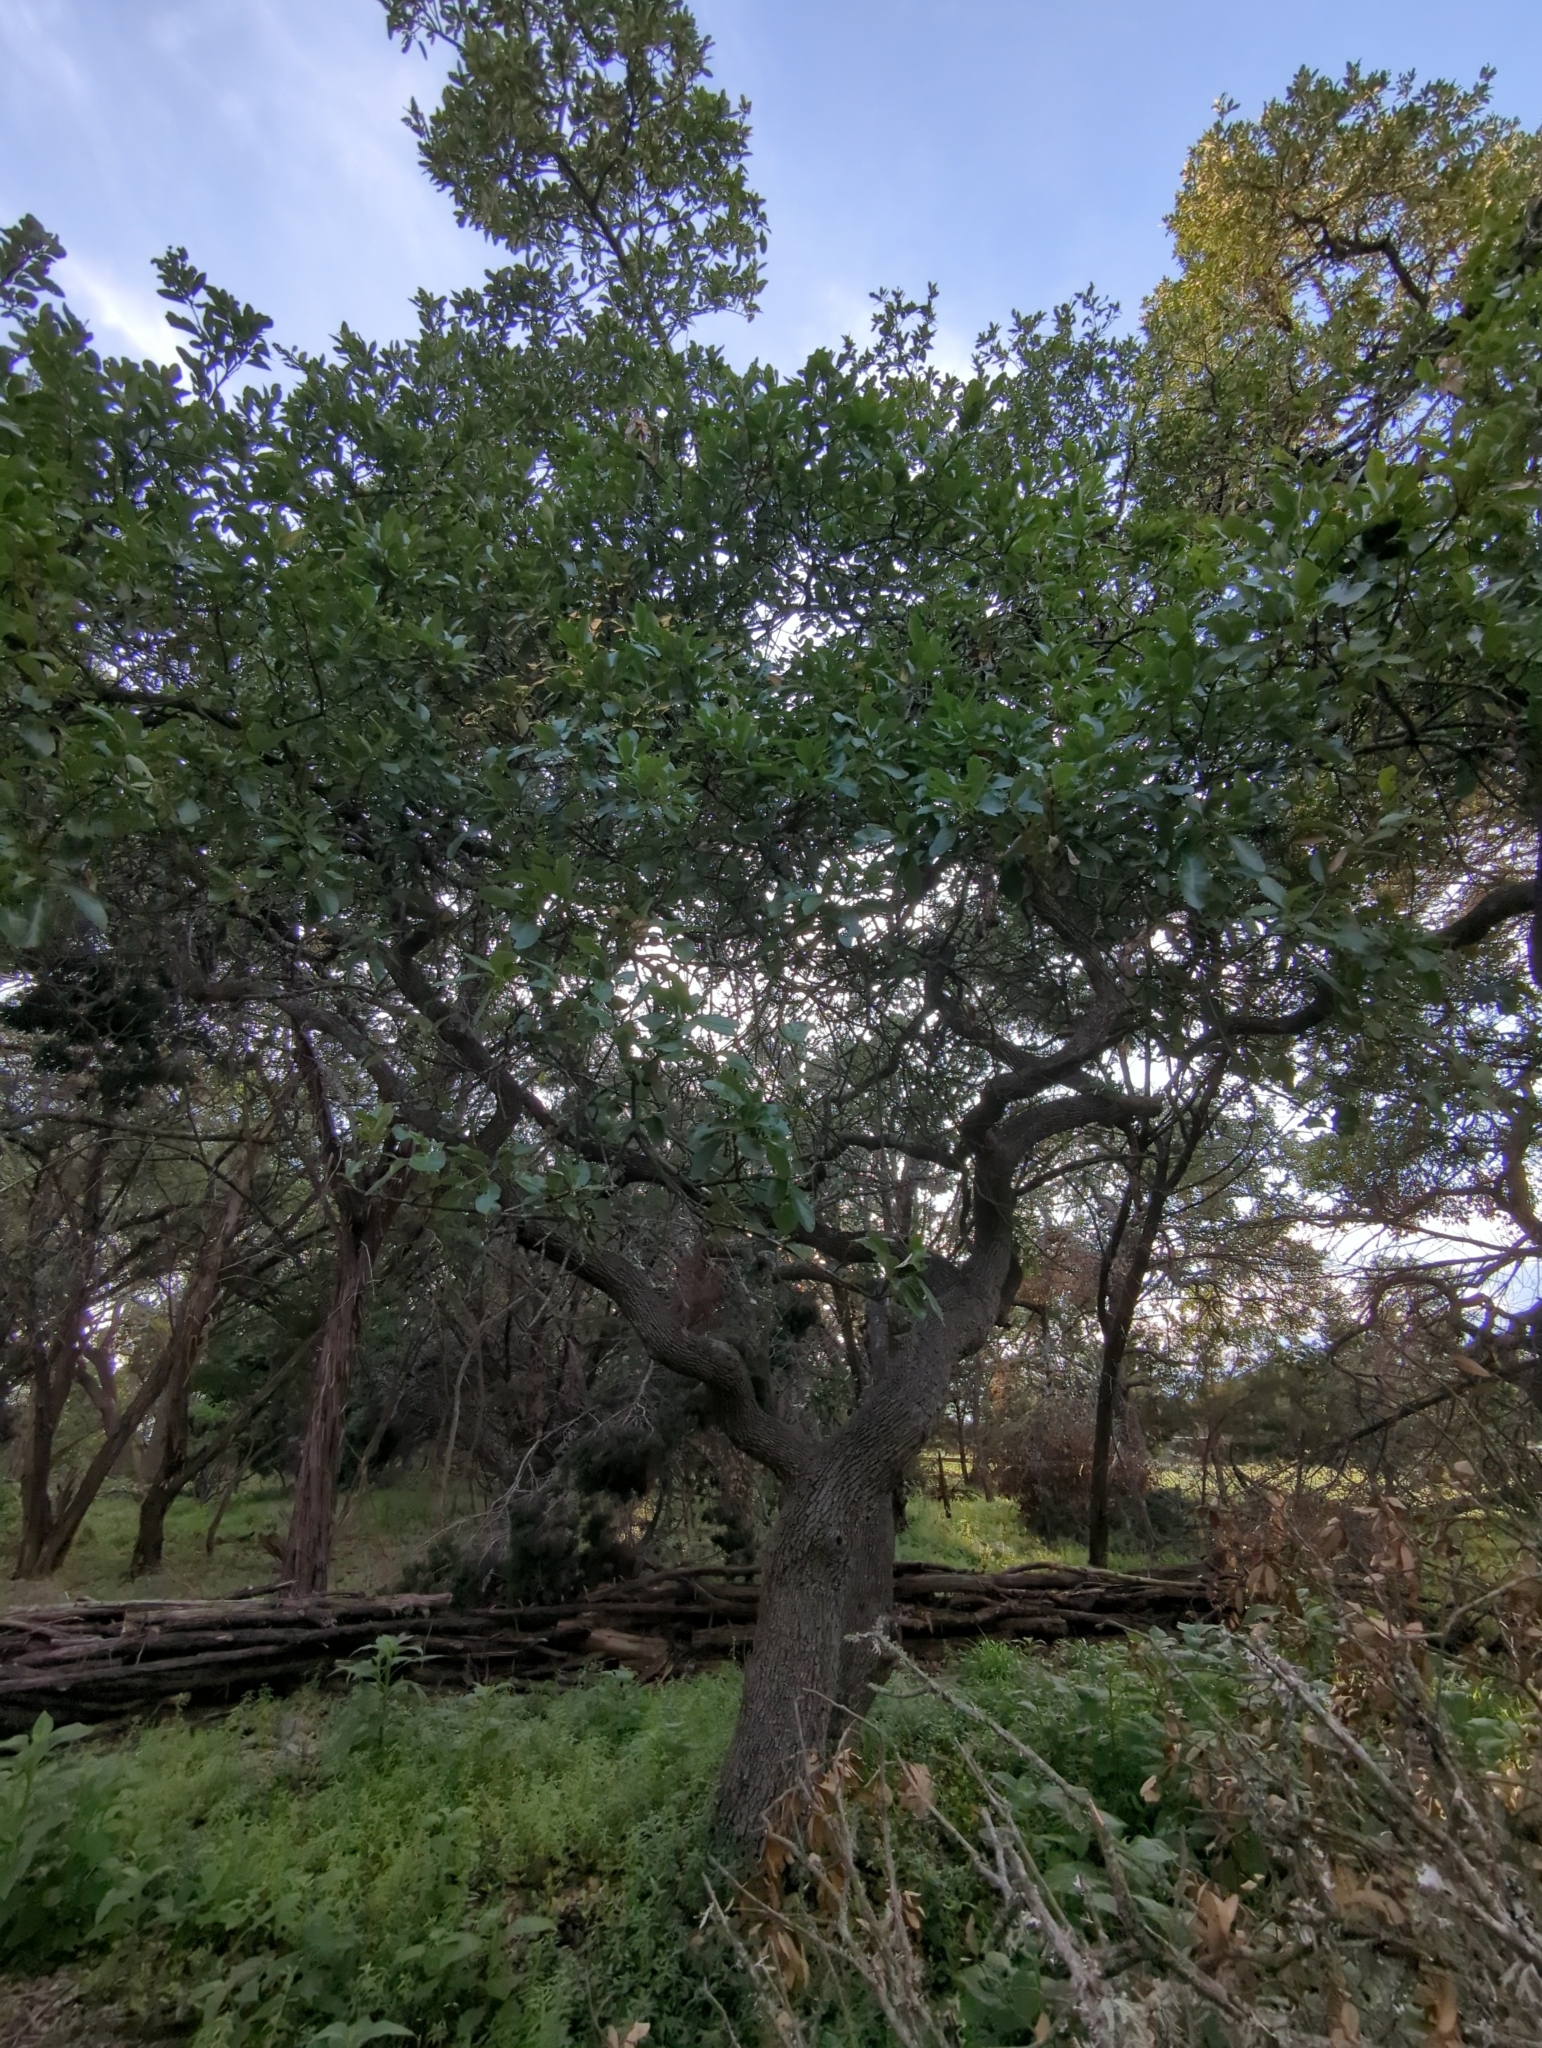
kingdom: Plantae
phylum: Tracheophyta
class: Magnoliopsida
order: Fagales
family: Fagaceae
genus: Quercus
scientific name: Quercus fusiformis
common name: Texas live oak
